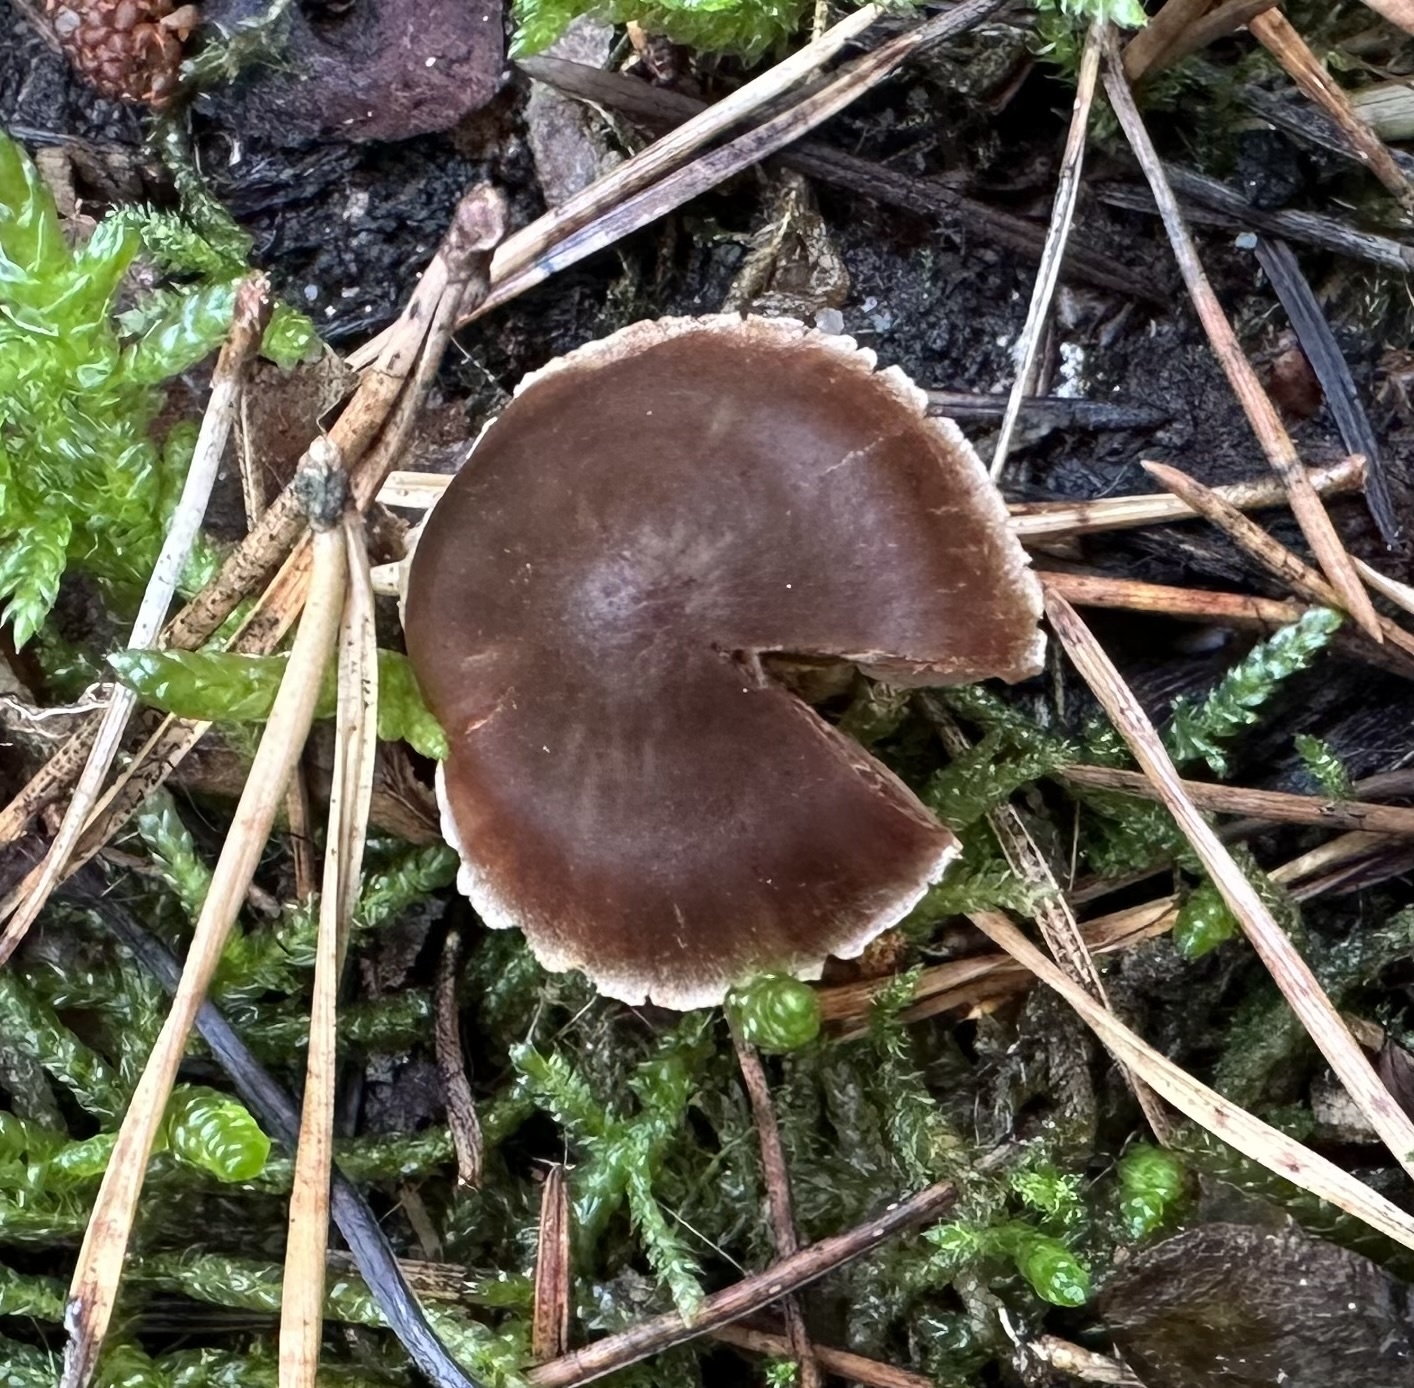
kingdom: Fungi
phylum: Basidiomycota
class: Agaricomycetes
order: Agaricales
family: Cortinariaceae
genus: Cortinarius
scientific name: Cortinarius decipiens
